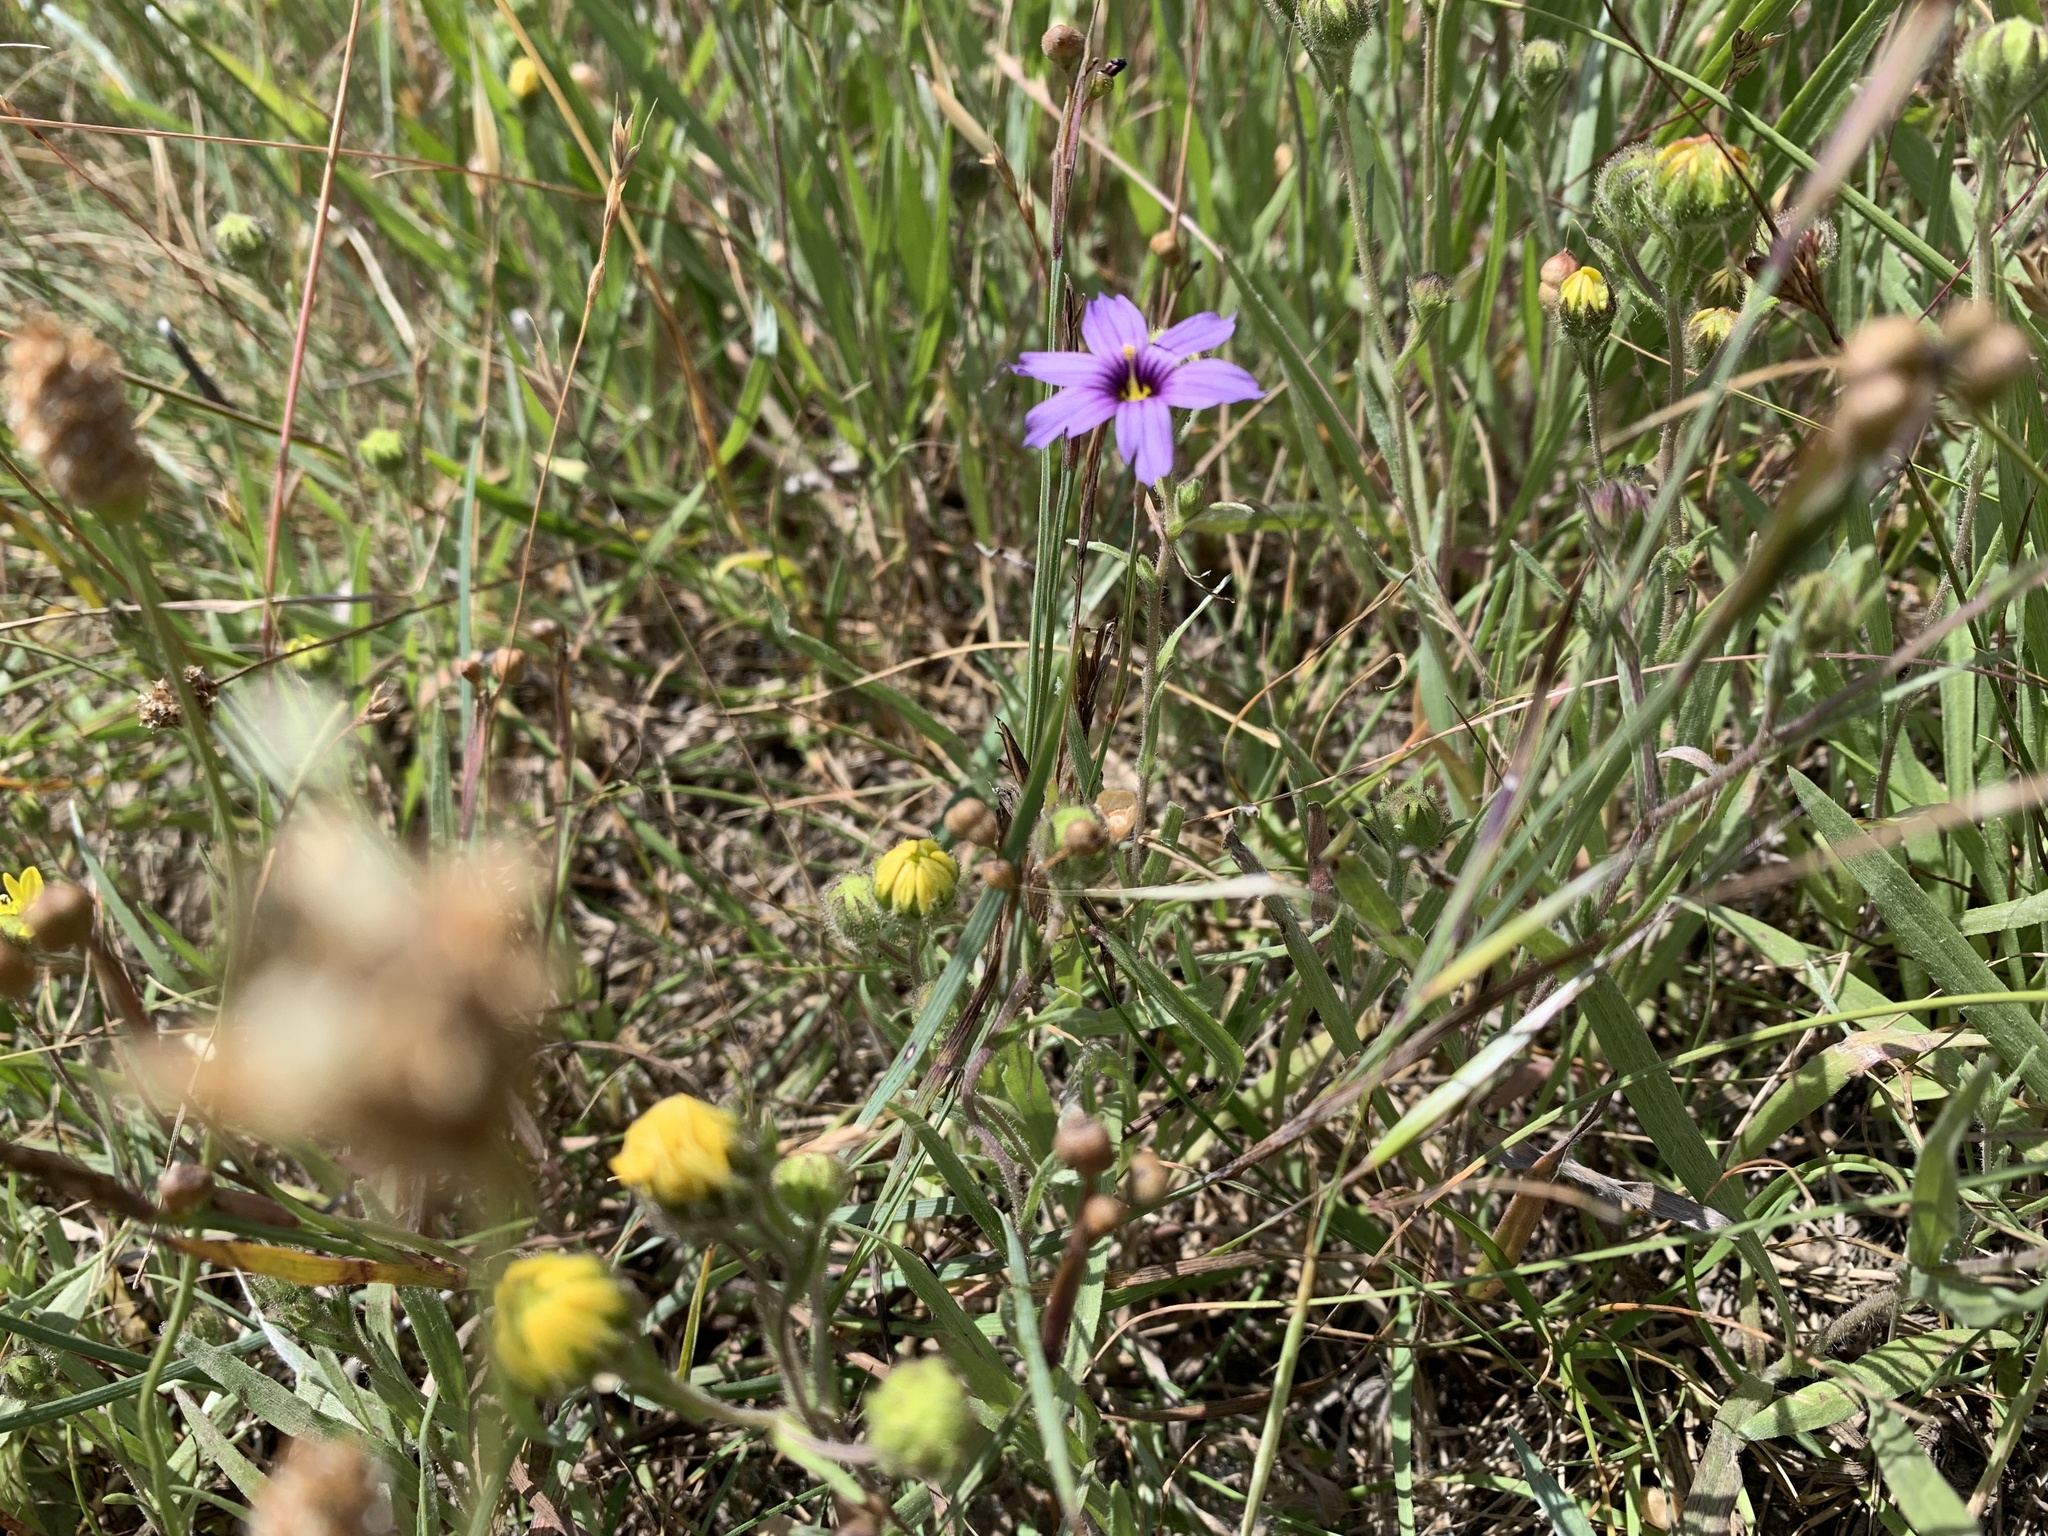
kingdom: Plantae
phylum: Tracheophyta
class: Liliopsida
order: Asparagales
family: Iridaceae
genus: Sisyrinchium
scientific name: Sisyrinchium bellum
